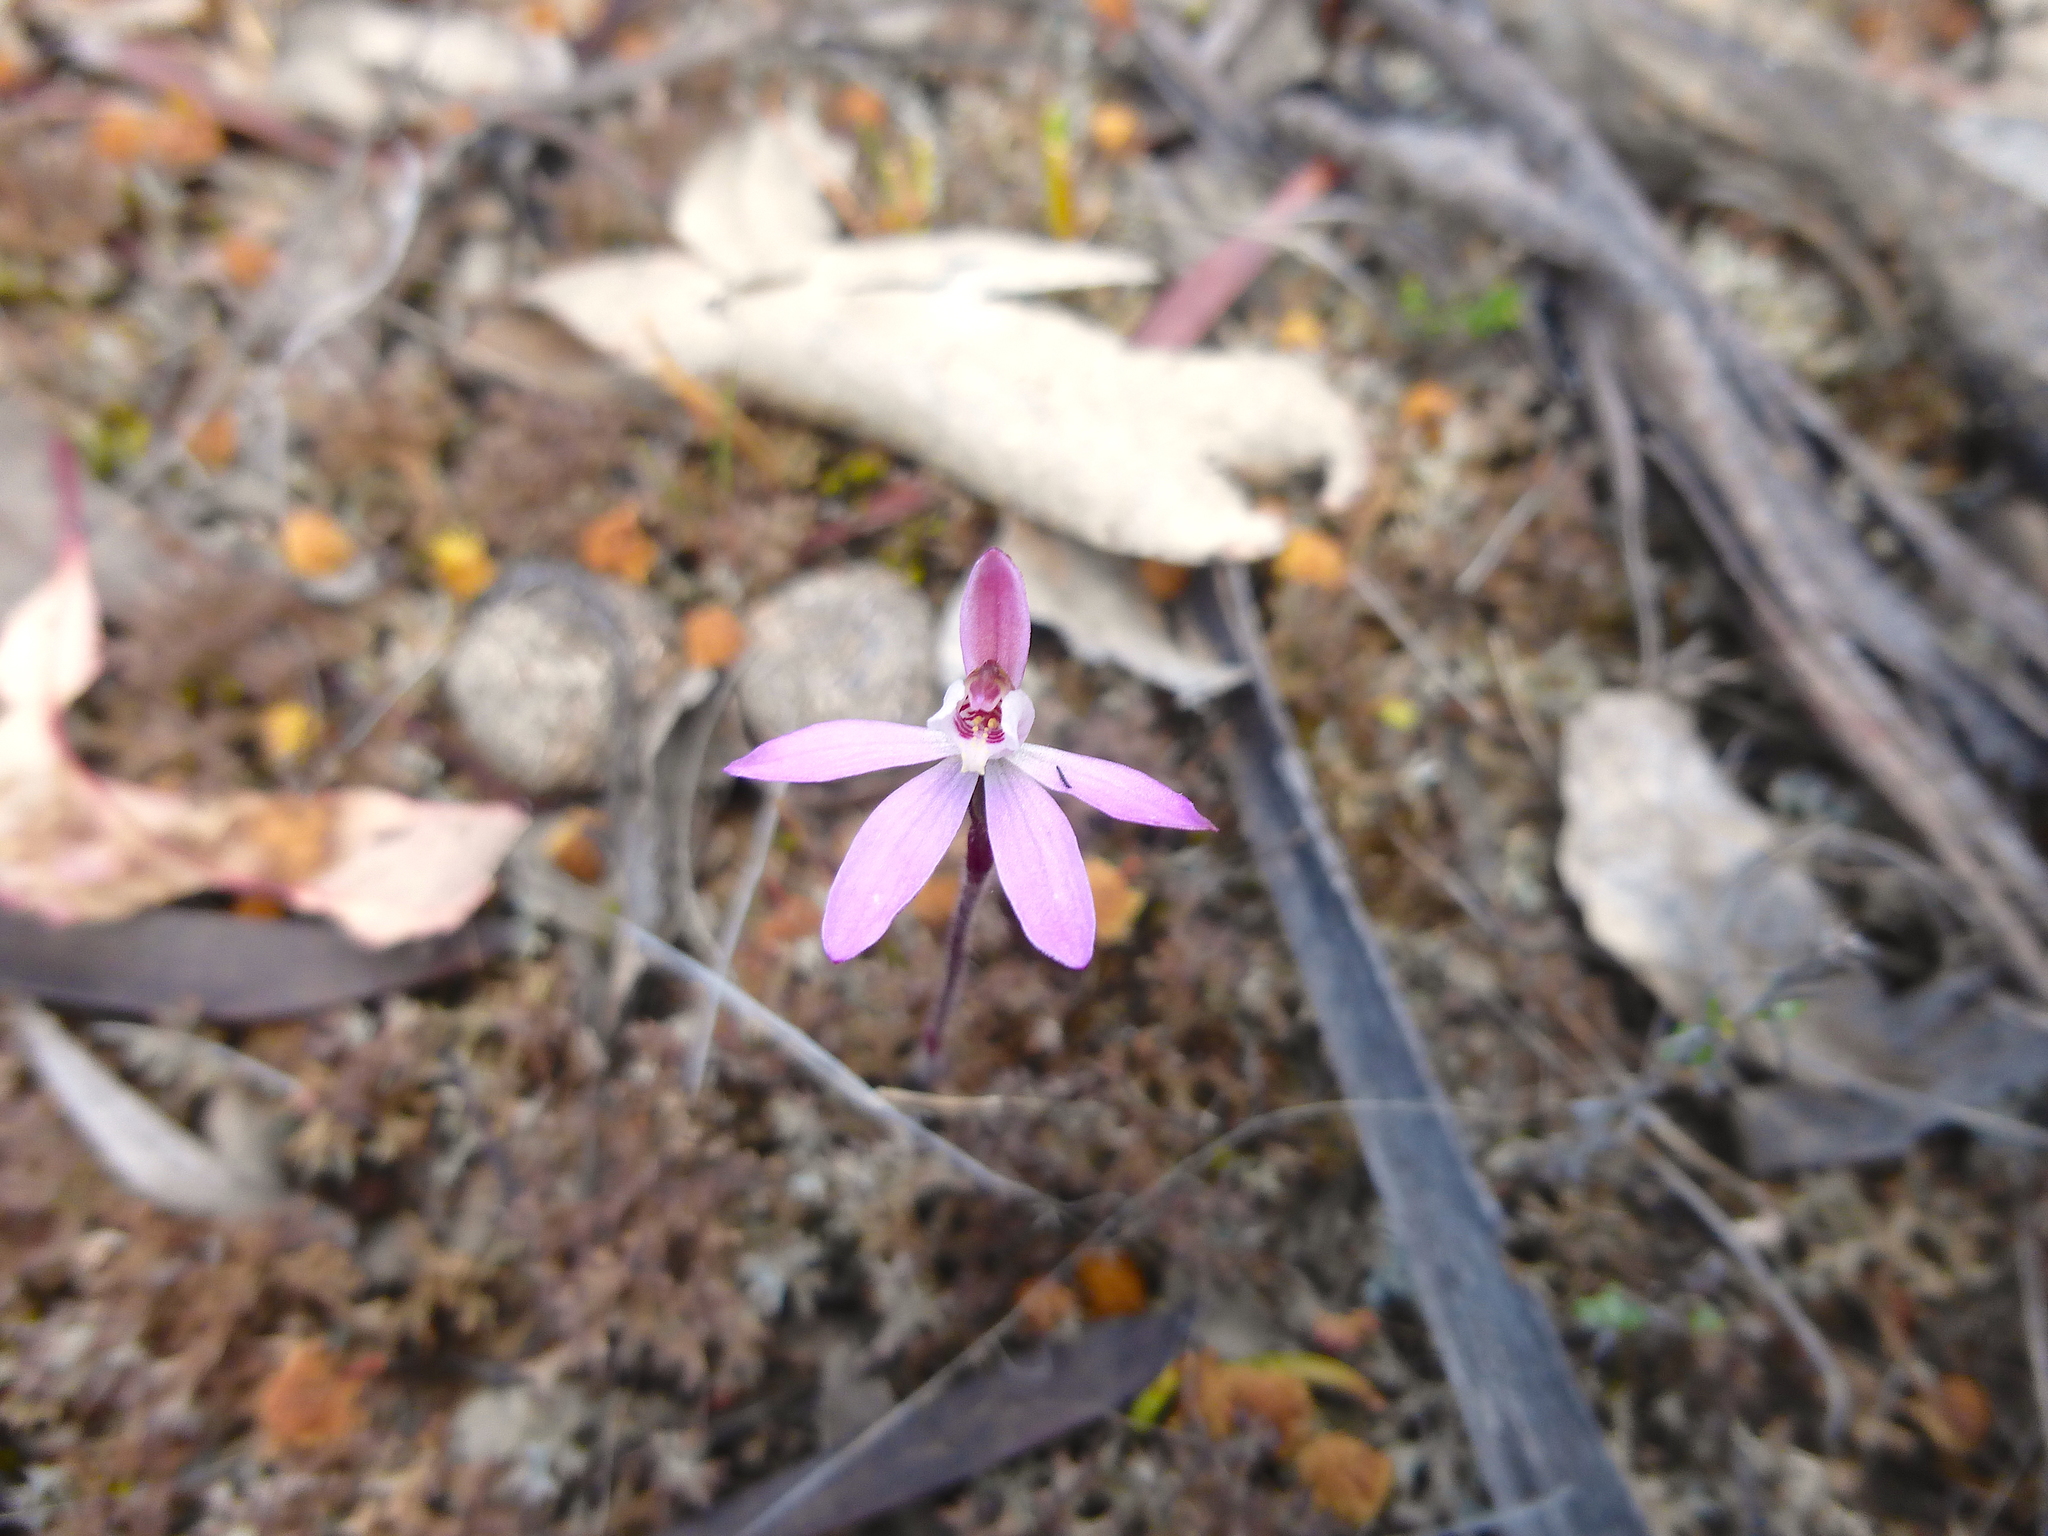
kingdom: Plantae
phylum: Tracheophyta
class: Liliopsida
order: Asparagales
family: Orchidaceae
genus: Caladenia
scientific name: Caladenia fuscata
